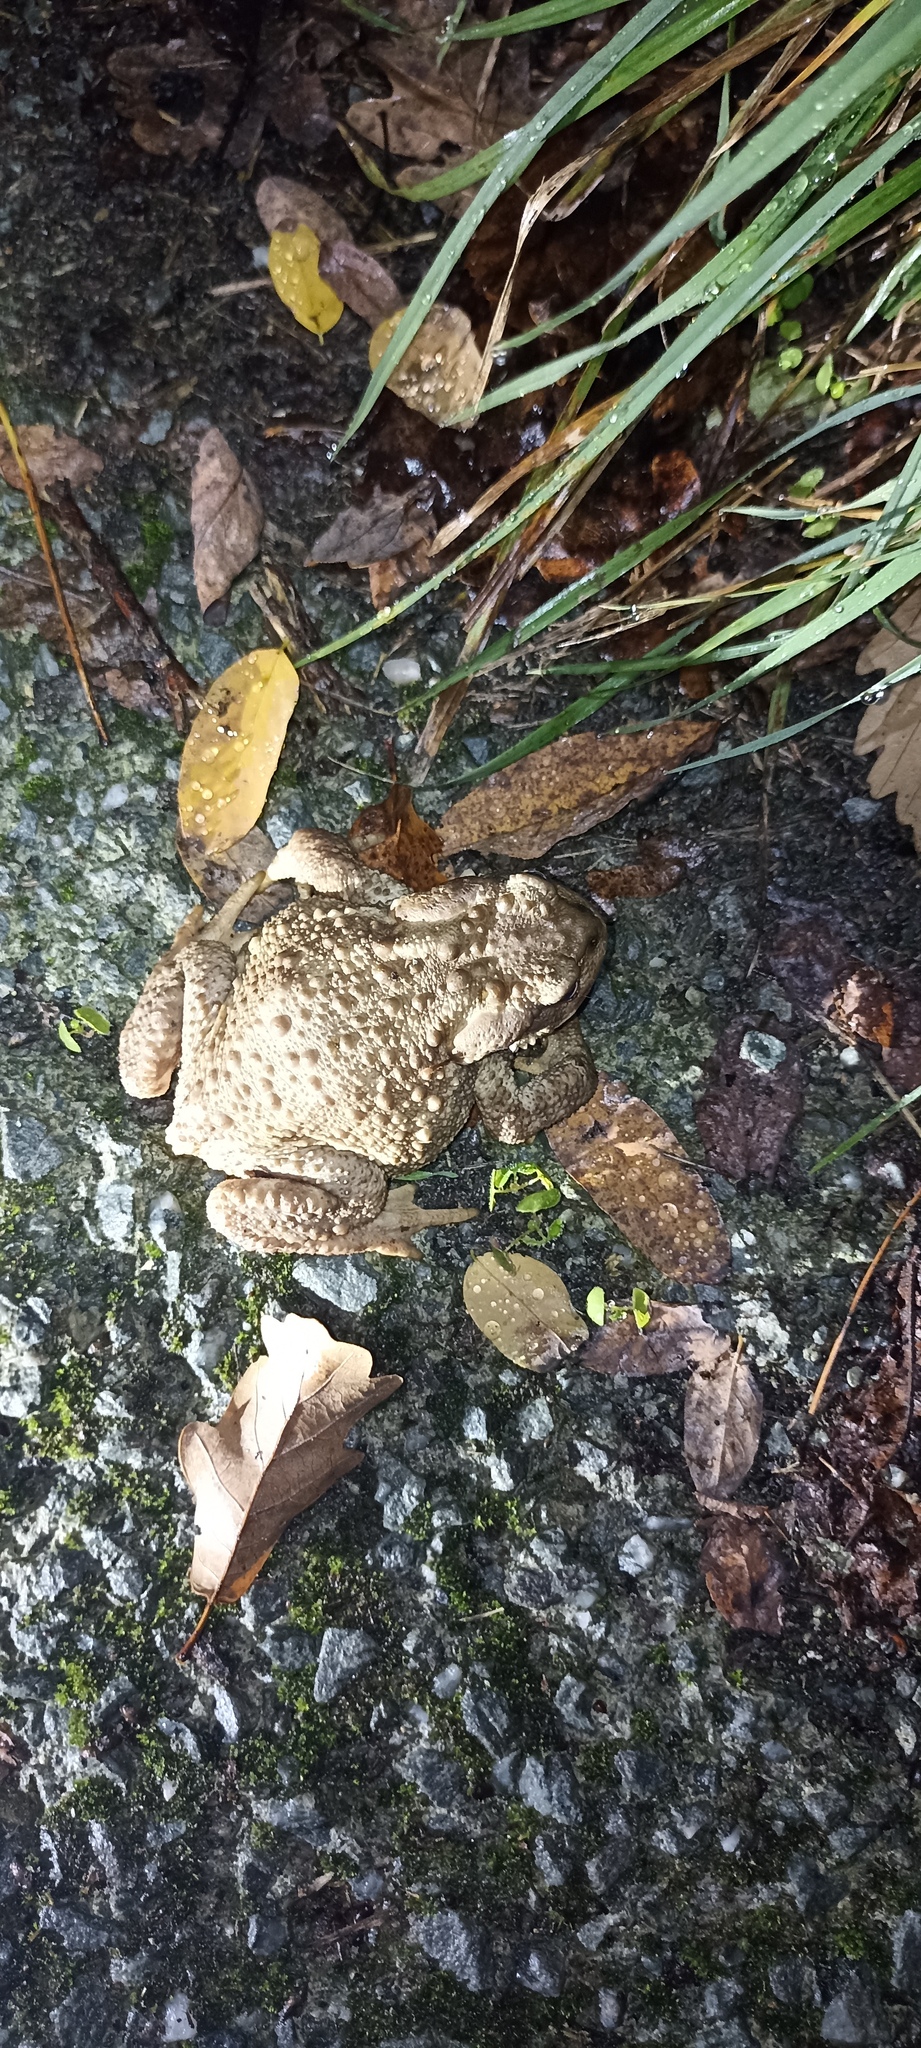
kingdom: Animalia
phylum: Chordata
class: Amphibia
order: Anura
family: Bufonidae
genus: Bufo
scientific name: Bufo spinosus
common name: Western common toad
